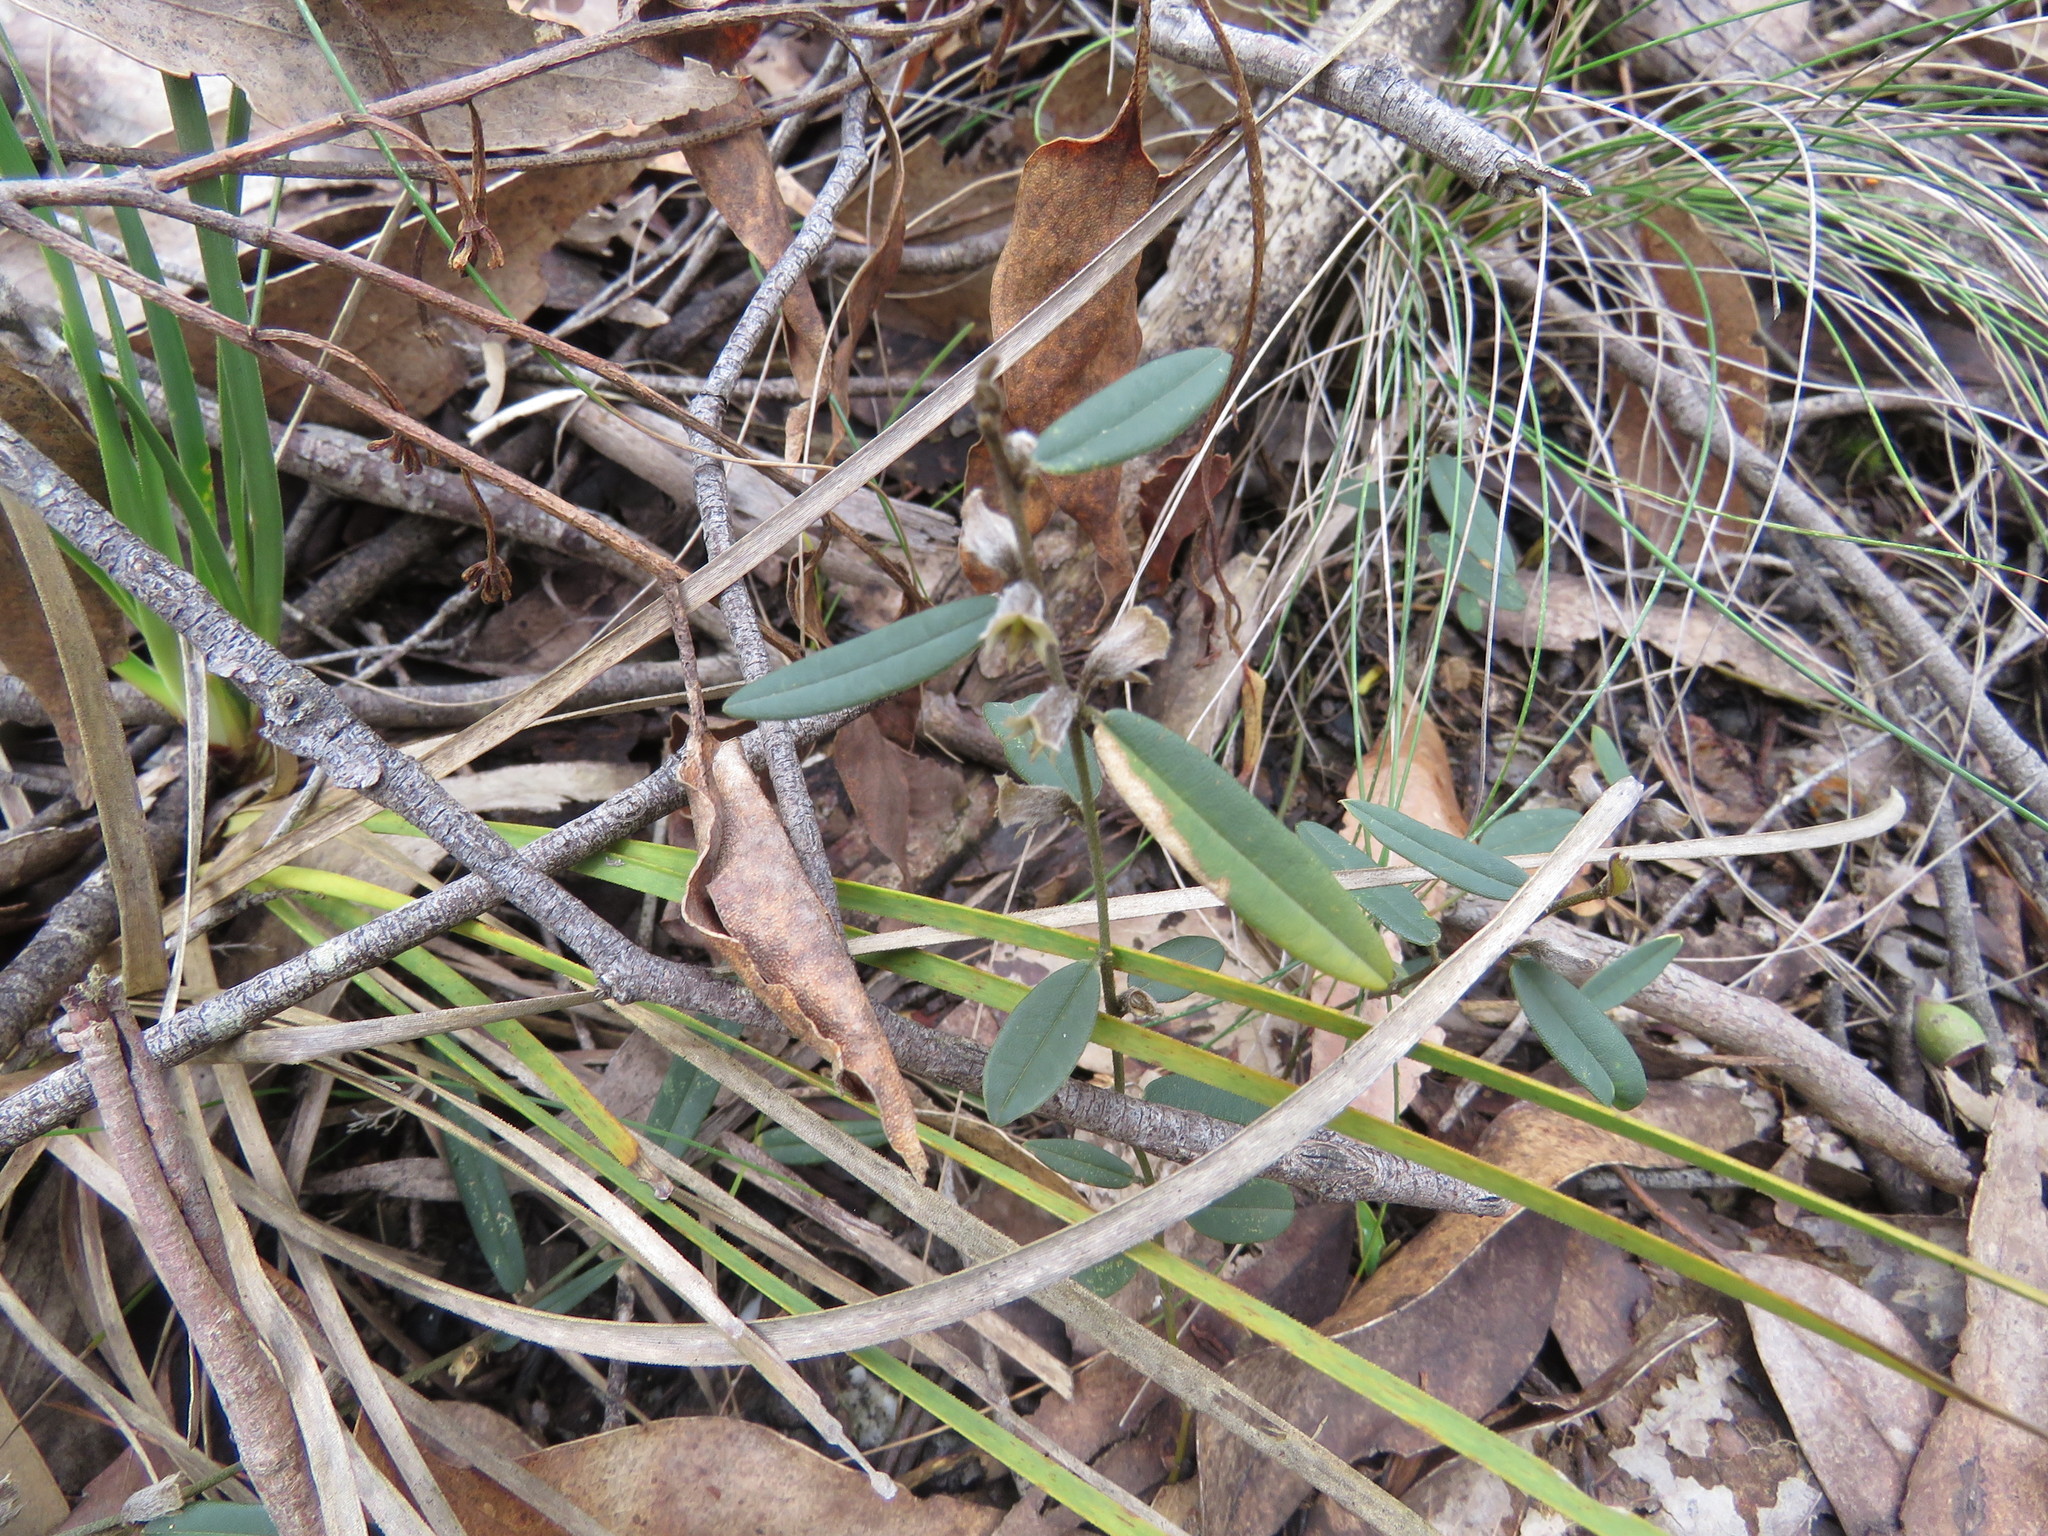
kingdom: Plantae
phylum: Tracheophyta
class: Magnoliopsida
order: Fabales
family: Fabaceae
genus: Hovea
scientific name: Hovea heterophylla
